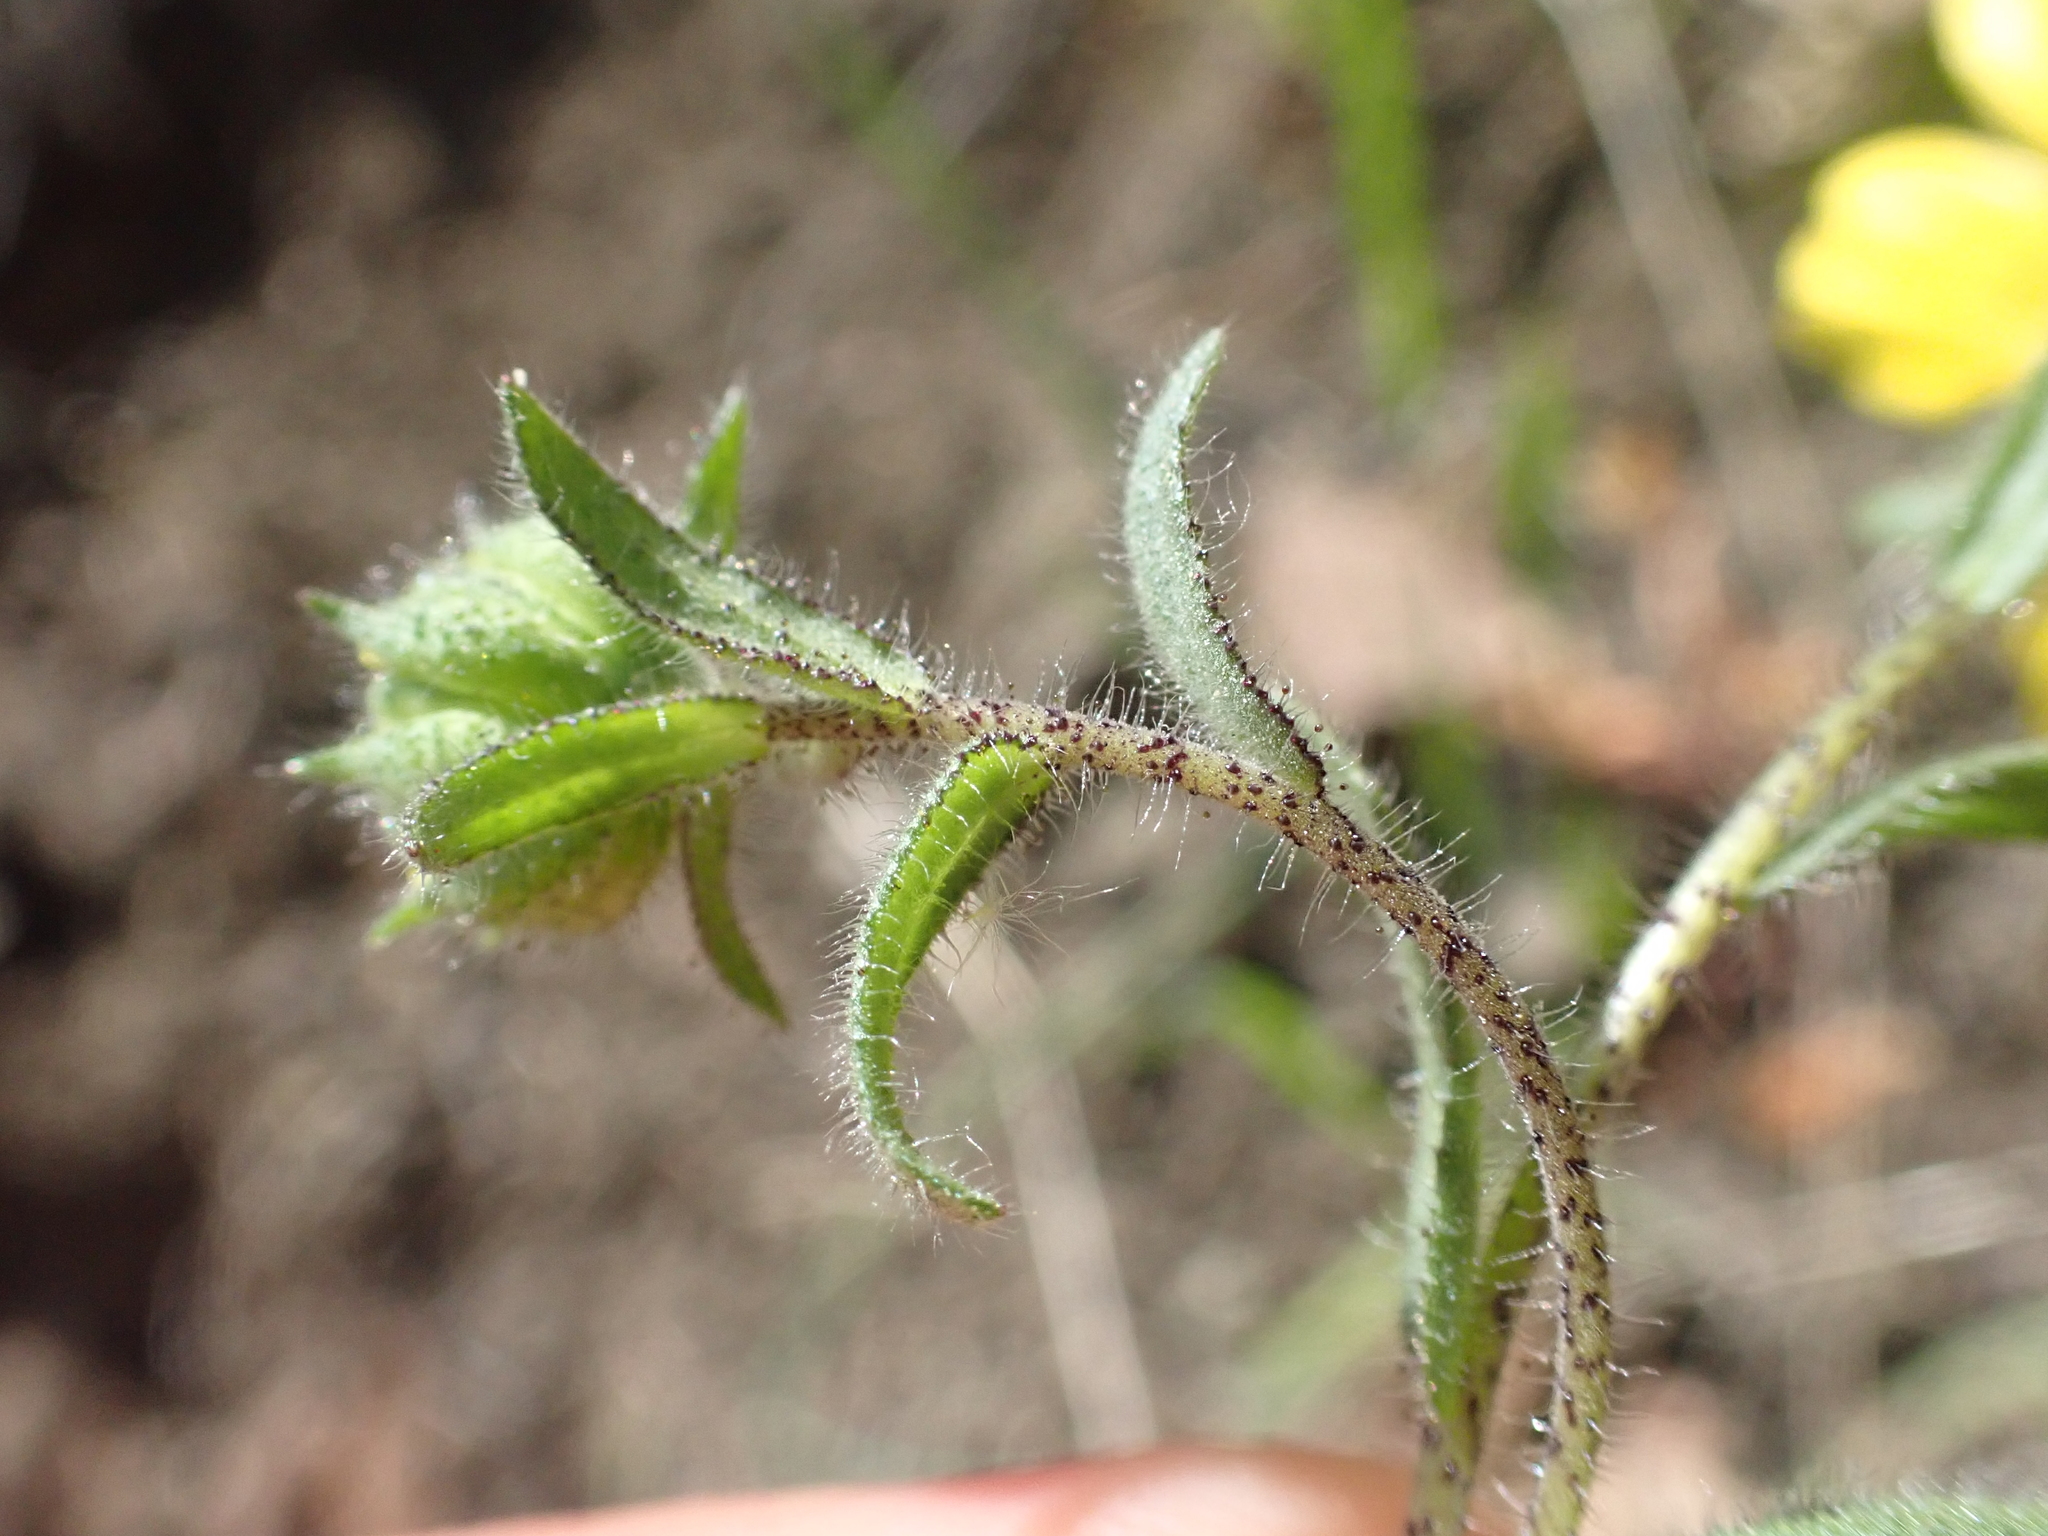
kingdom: Plantae
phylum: Tracheophyta
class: Magnoliopsida
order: Asterales
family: Asteraceae
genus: Layia
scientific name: Layia gaillardioides
